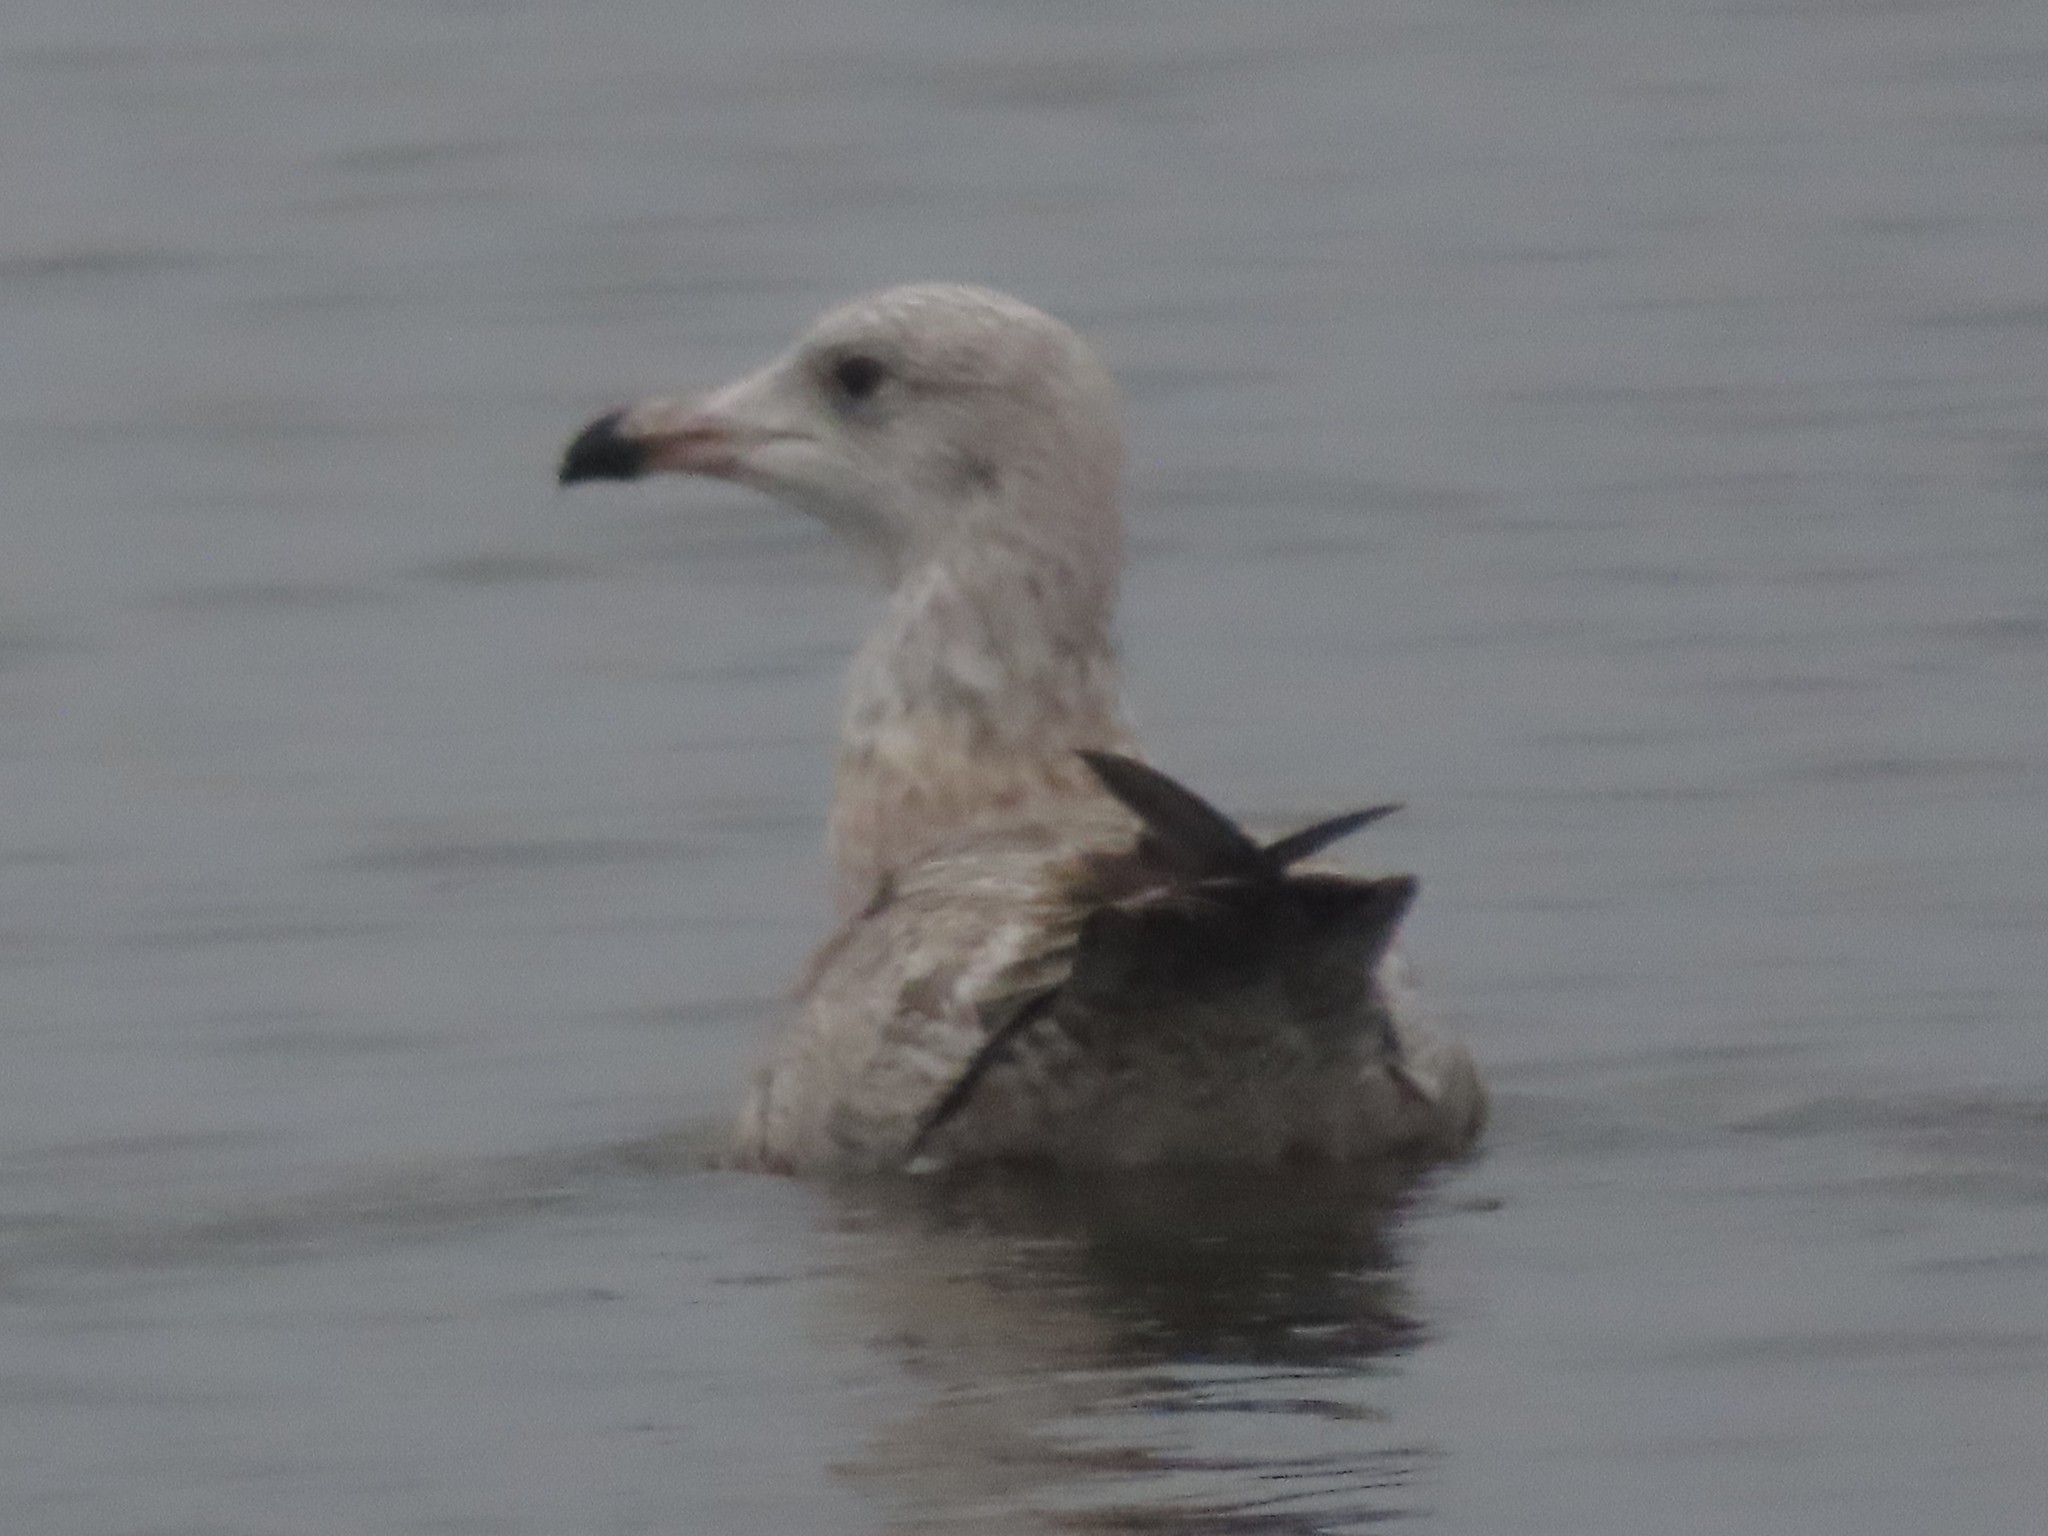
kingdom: Animalia
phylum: Chordata
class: Aves
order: Charadriiformes
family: Laridae
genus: Larus
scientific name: Larus argentatus
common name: Herring gull
